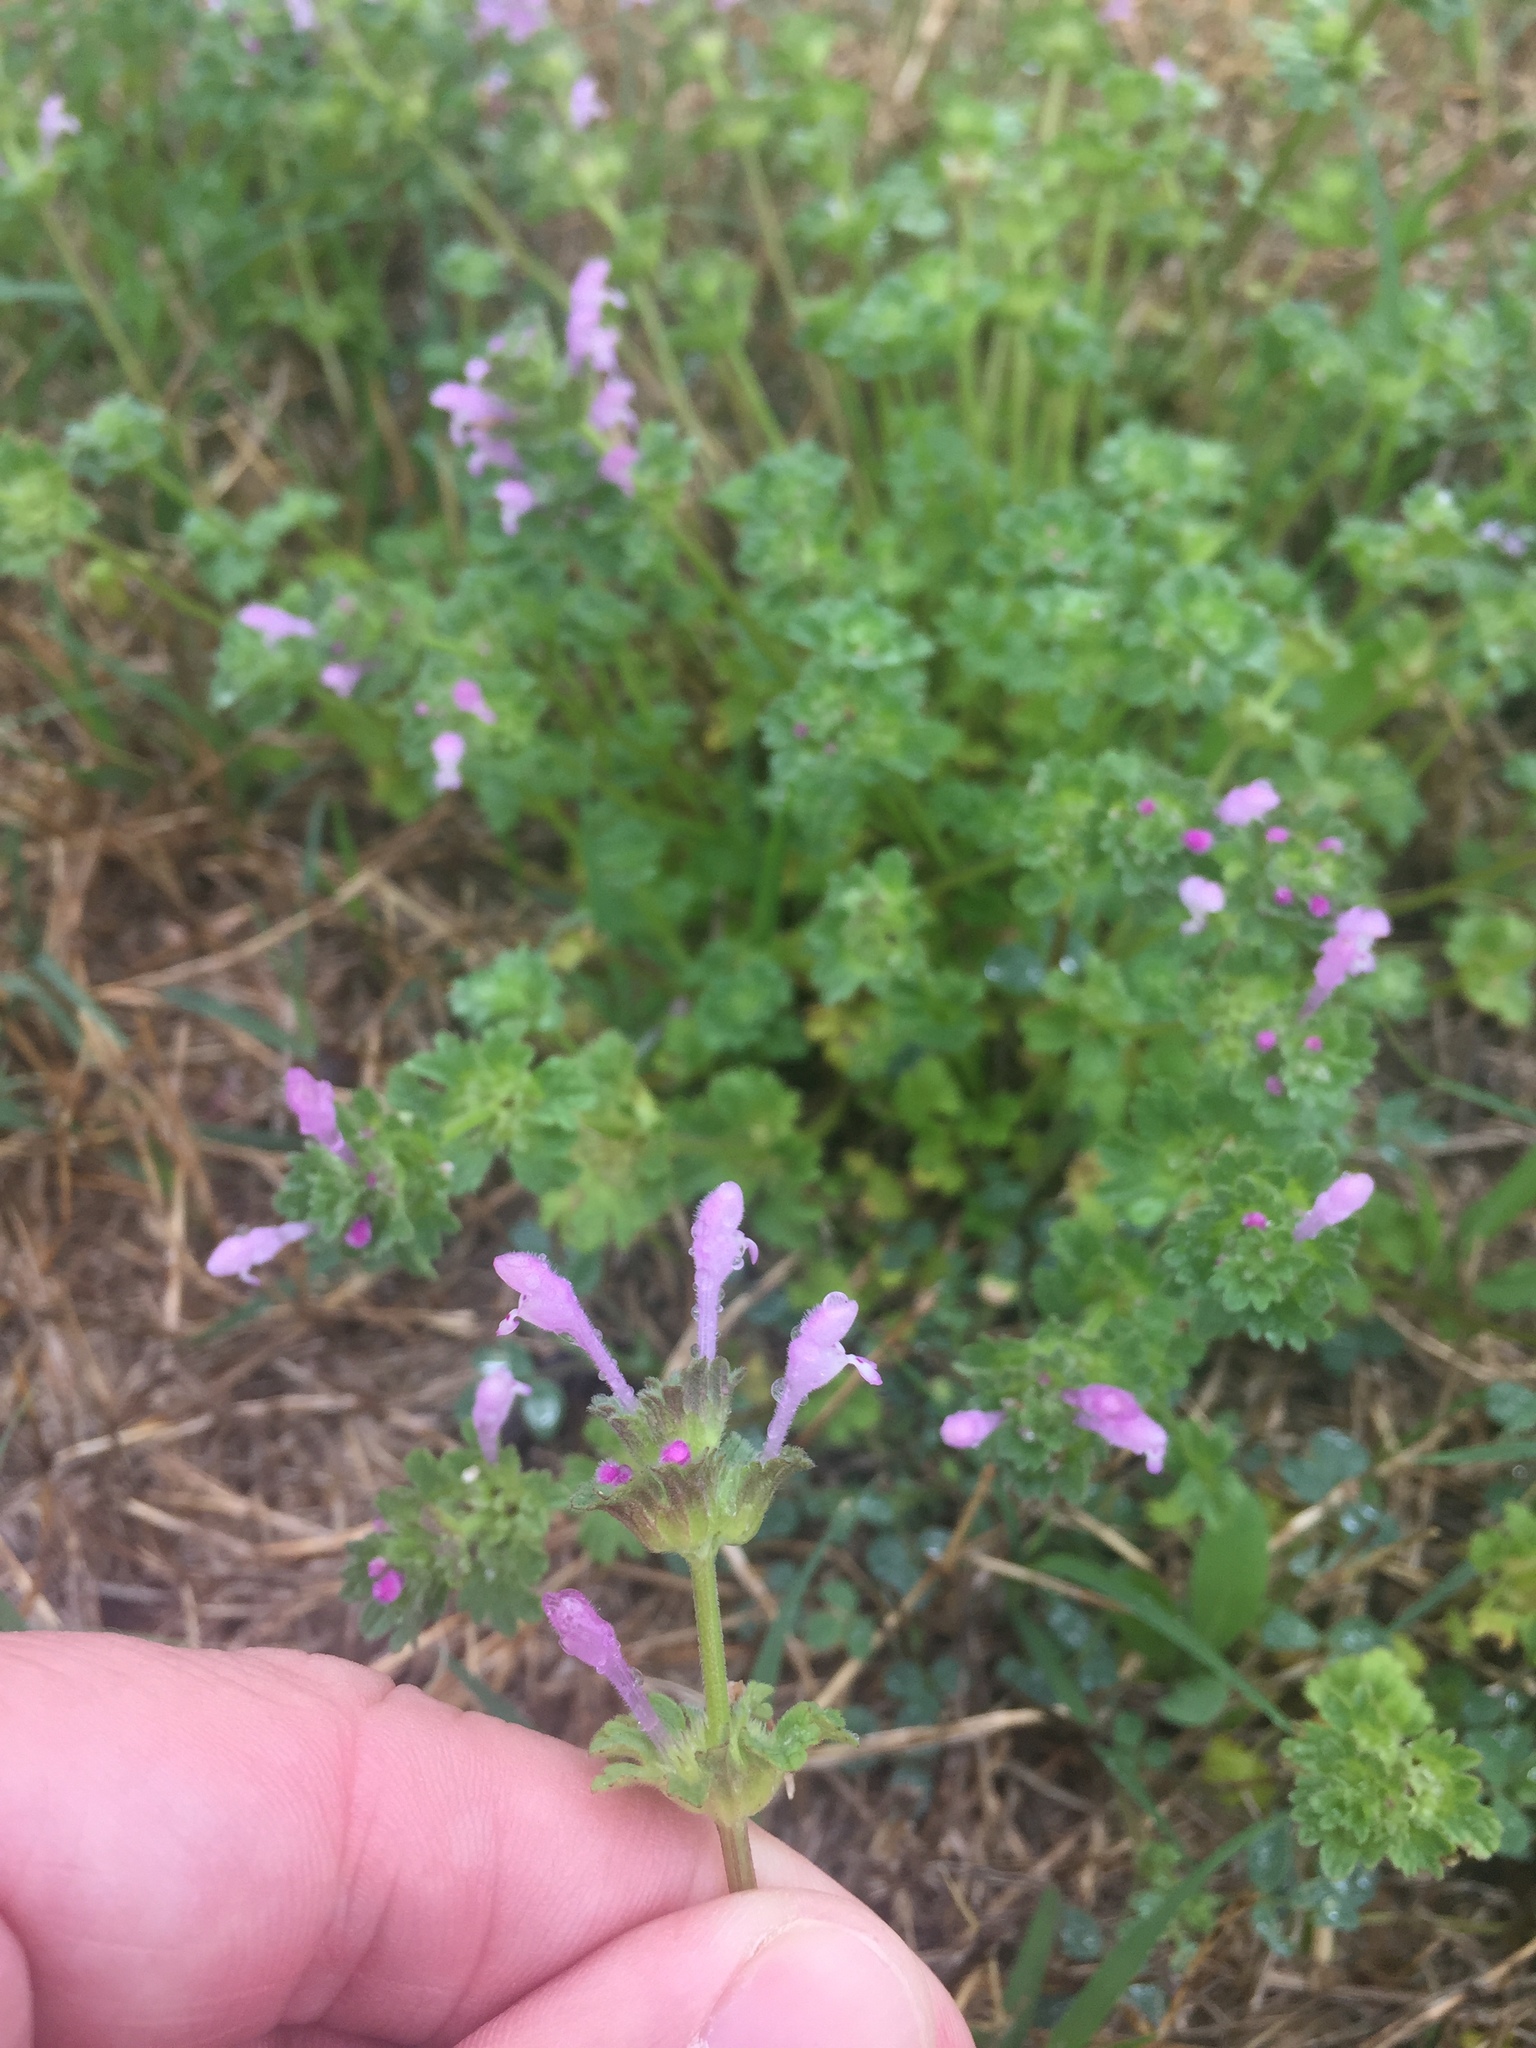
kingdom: Plantae
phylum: Tracheophyta
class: Magnoliopsida
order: Lamiales
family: Lamiaceae
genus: Lamium
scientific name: Lamium amplexicaule
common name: Henbit dead-nettle
